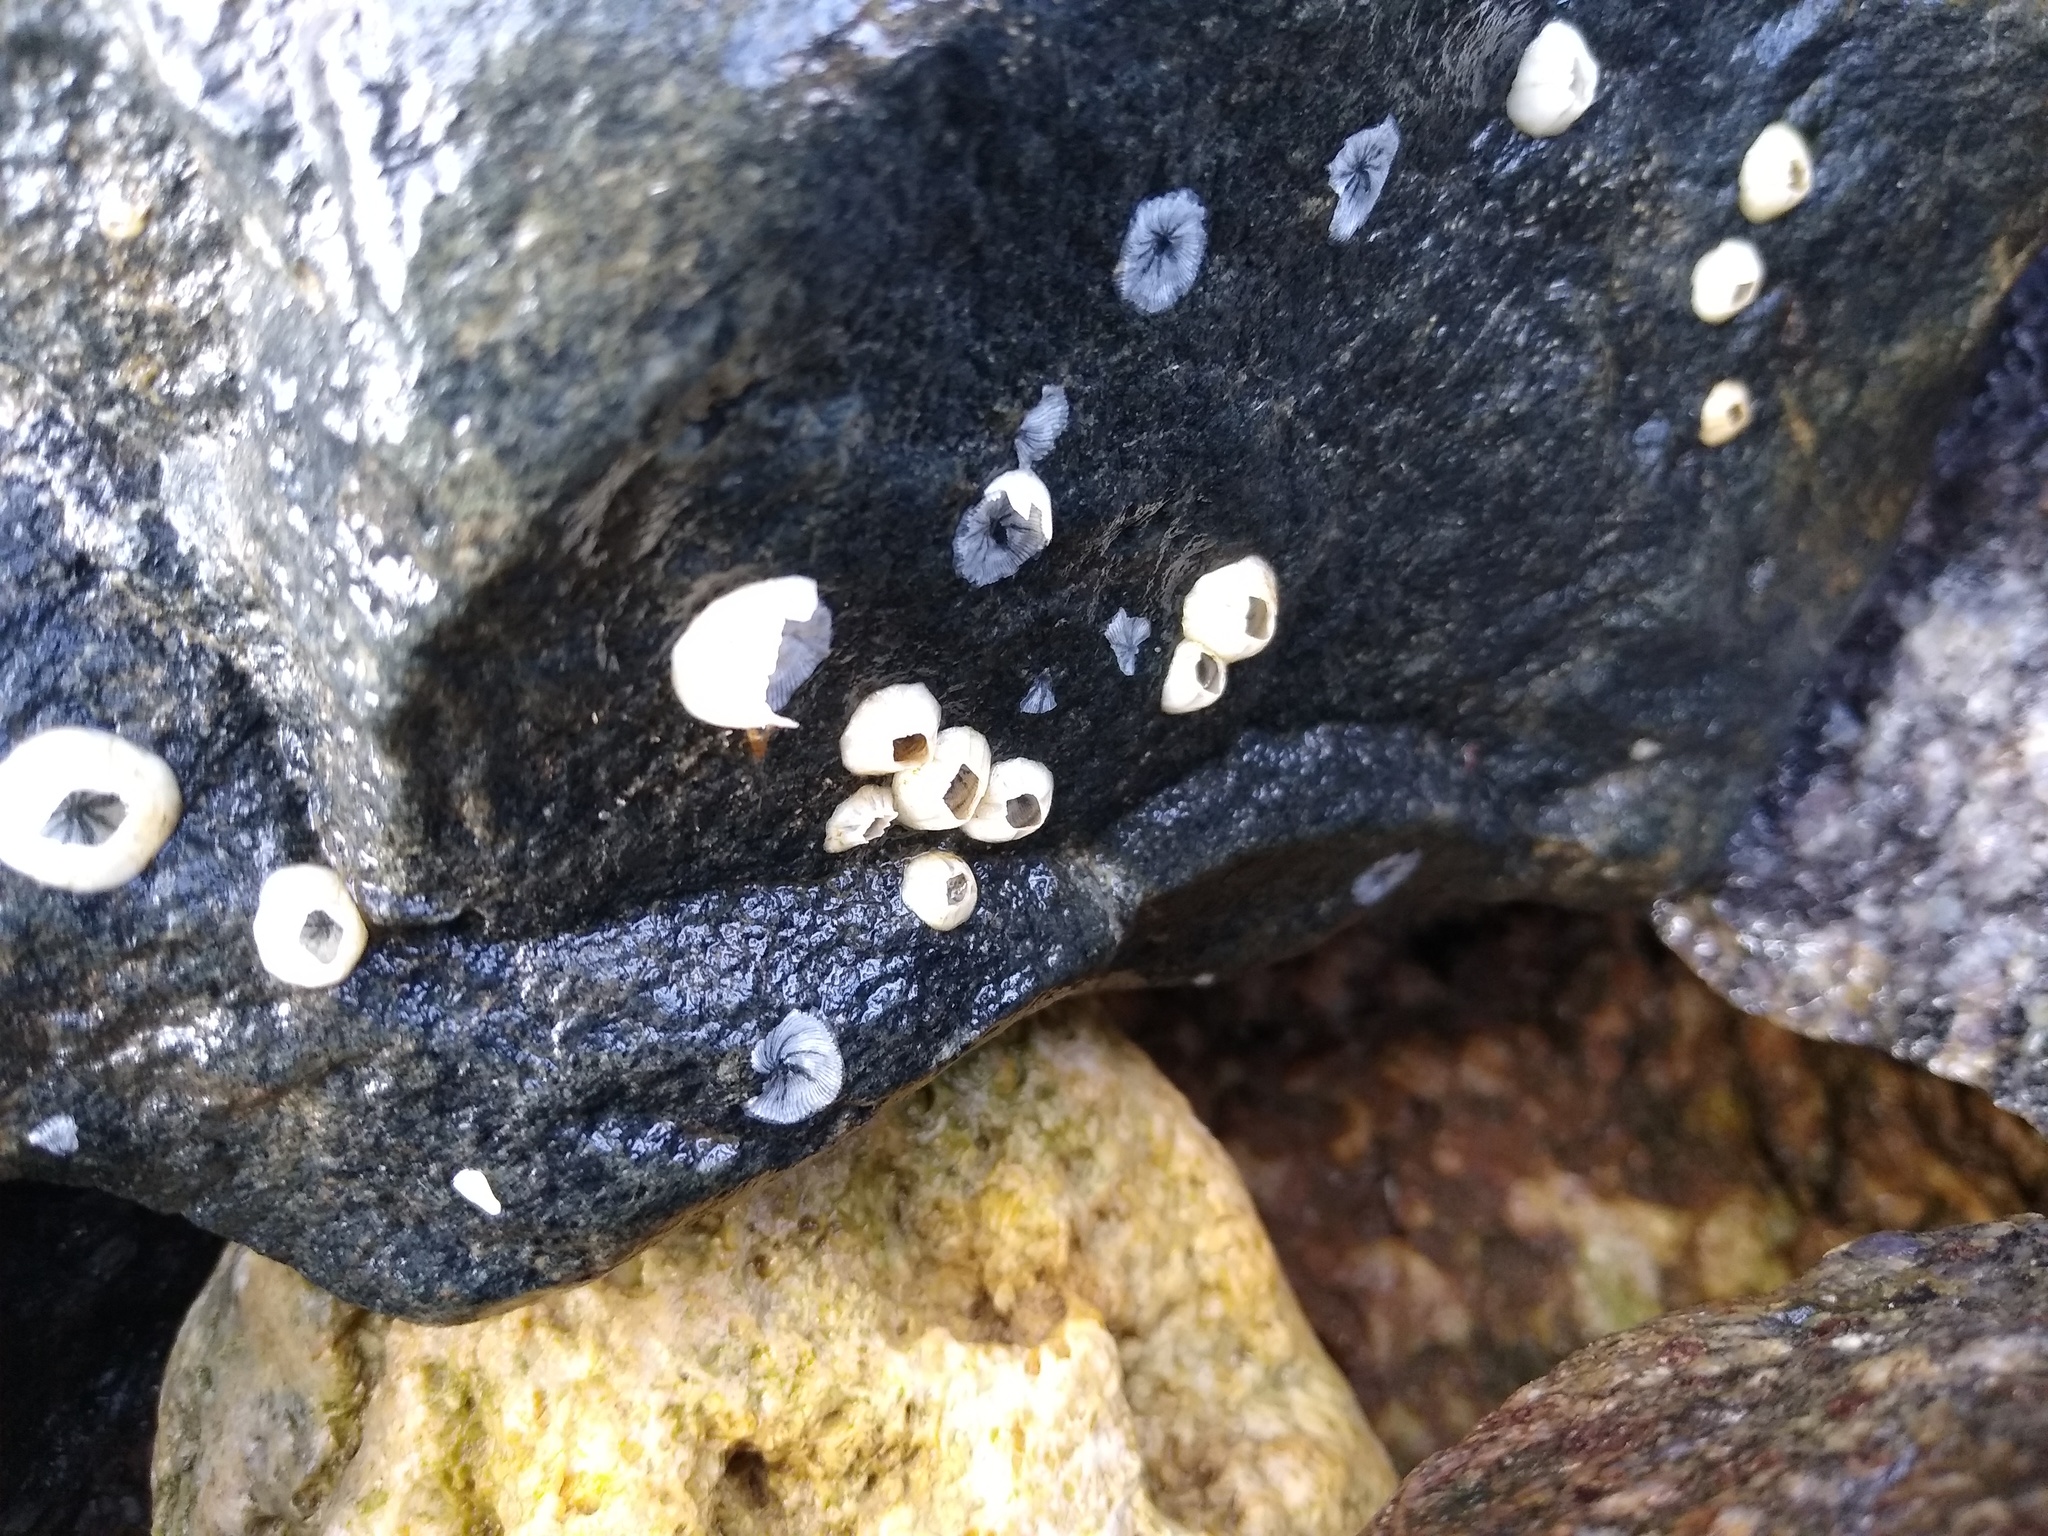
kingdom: Animalia
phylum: Arthropoda
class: Maxillopoda
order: Sessilia
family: Balanidae
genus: Amphibalanus
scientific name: Amphibalanus improvisus
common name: Bay barnacle
